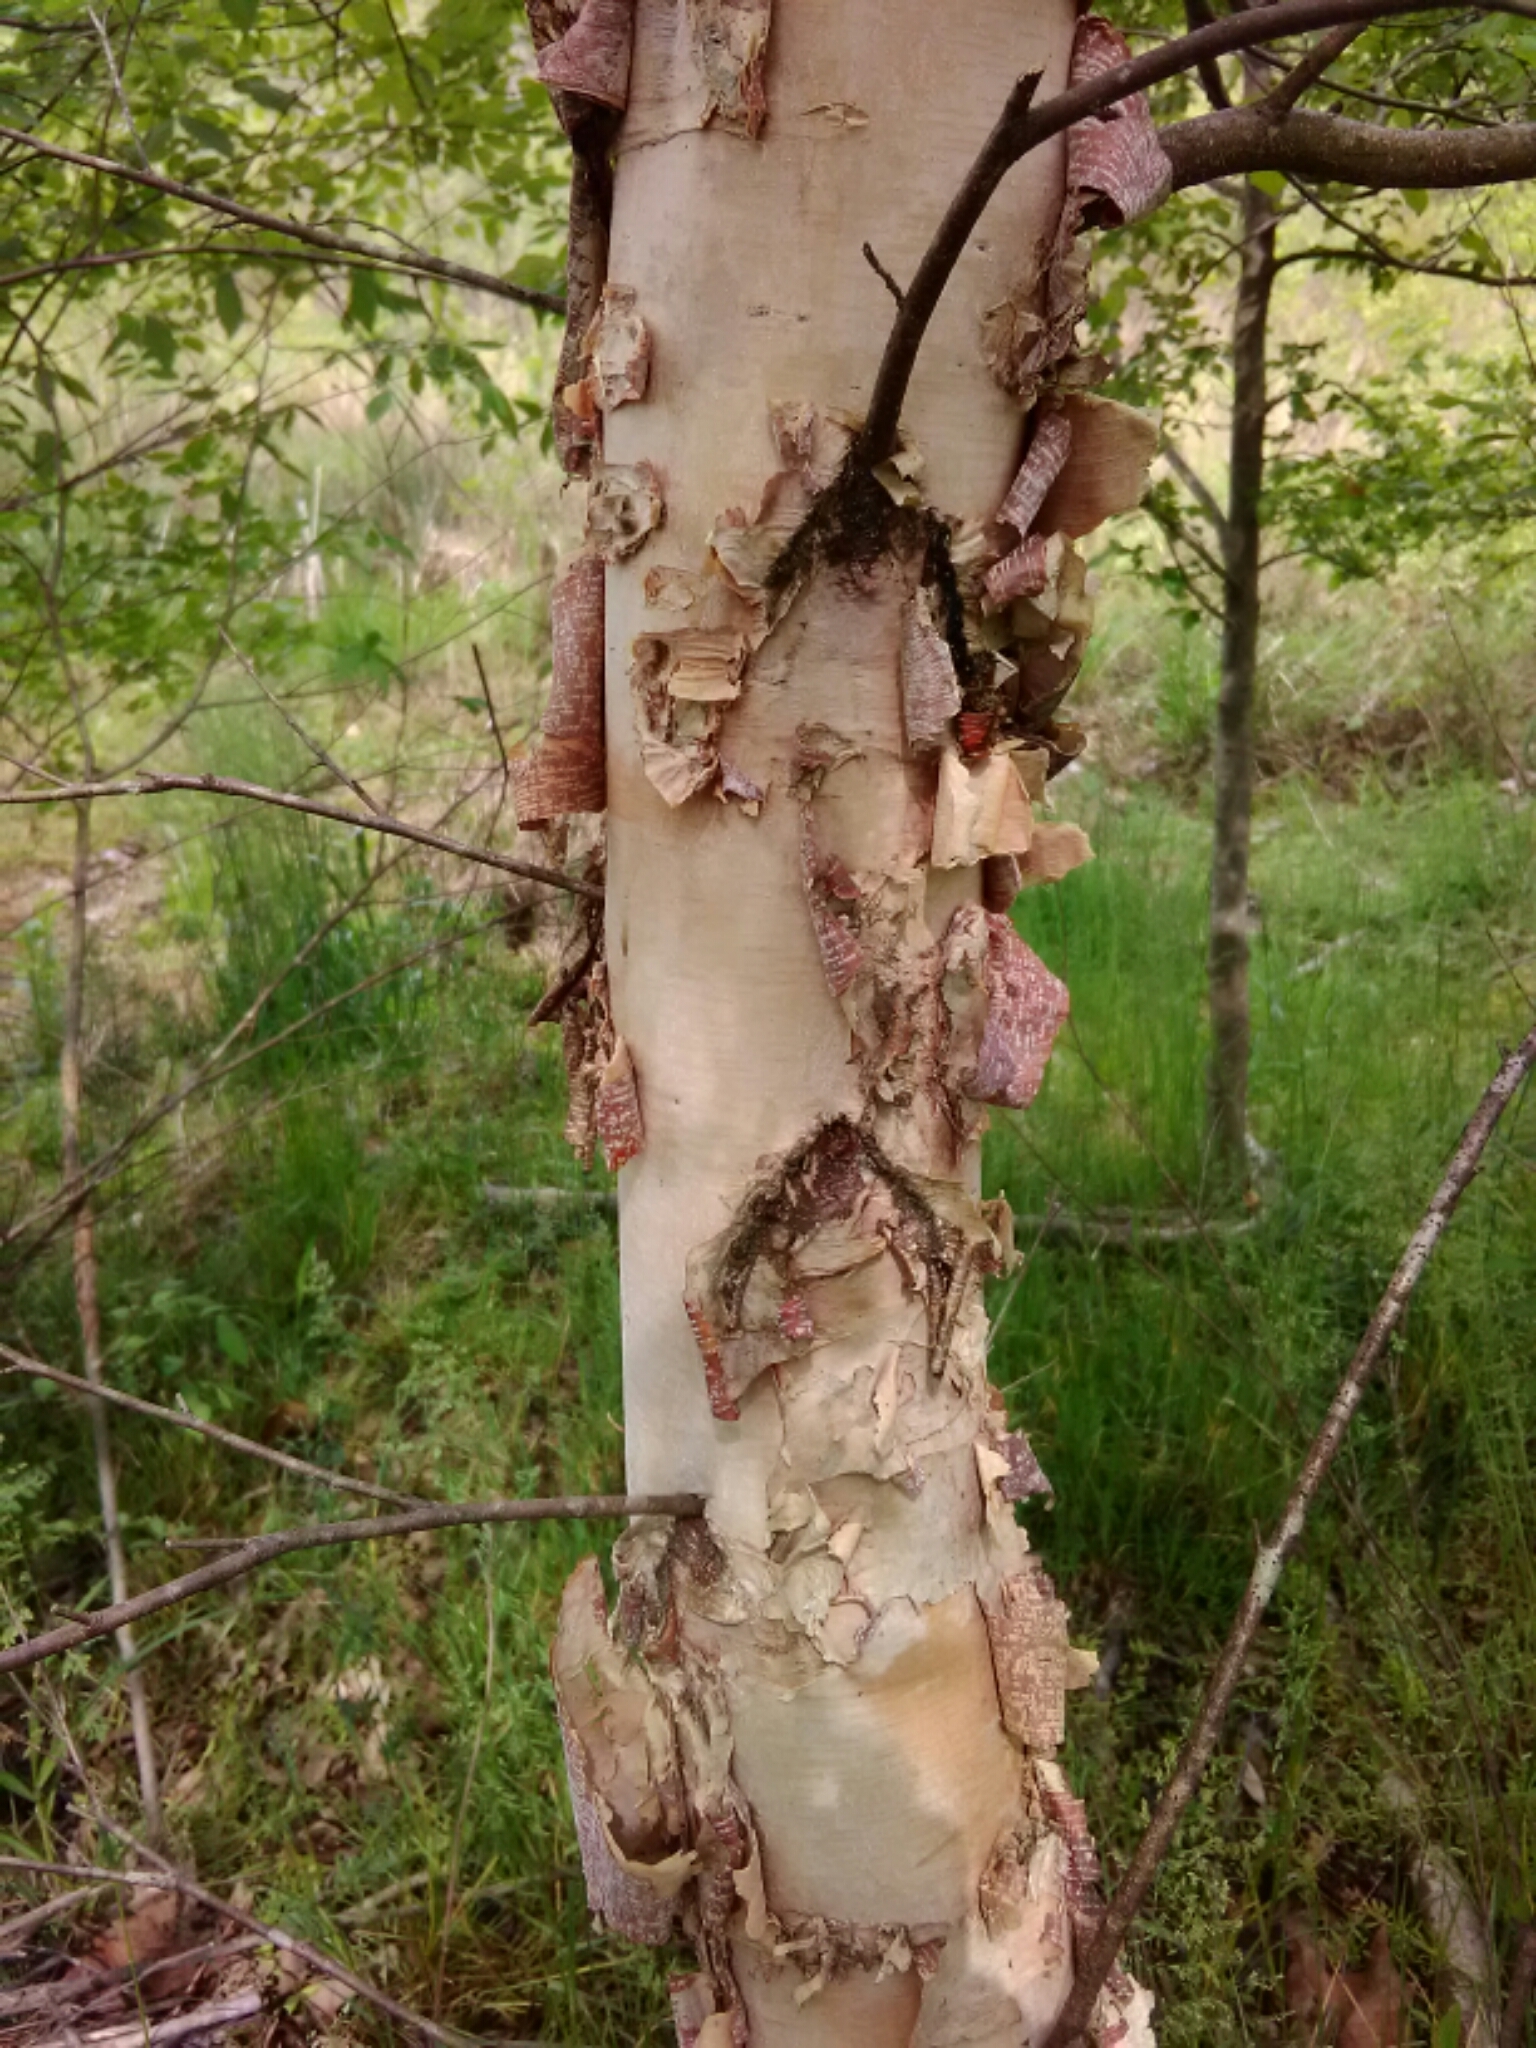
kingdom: Plantae
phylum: Tracheophyta
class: Magnoliopsida
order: Fagales
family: Betulaceae
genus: Betula
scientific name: Betula nigra
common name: Black birch
